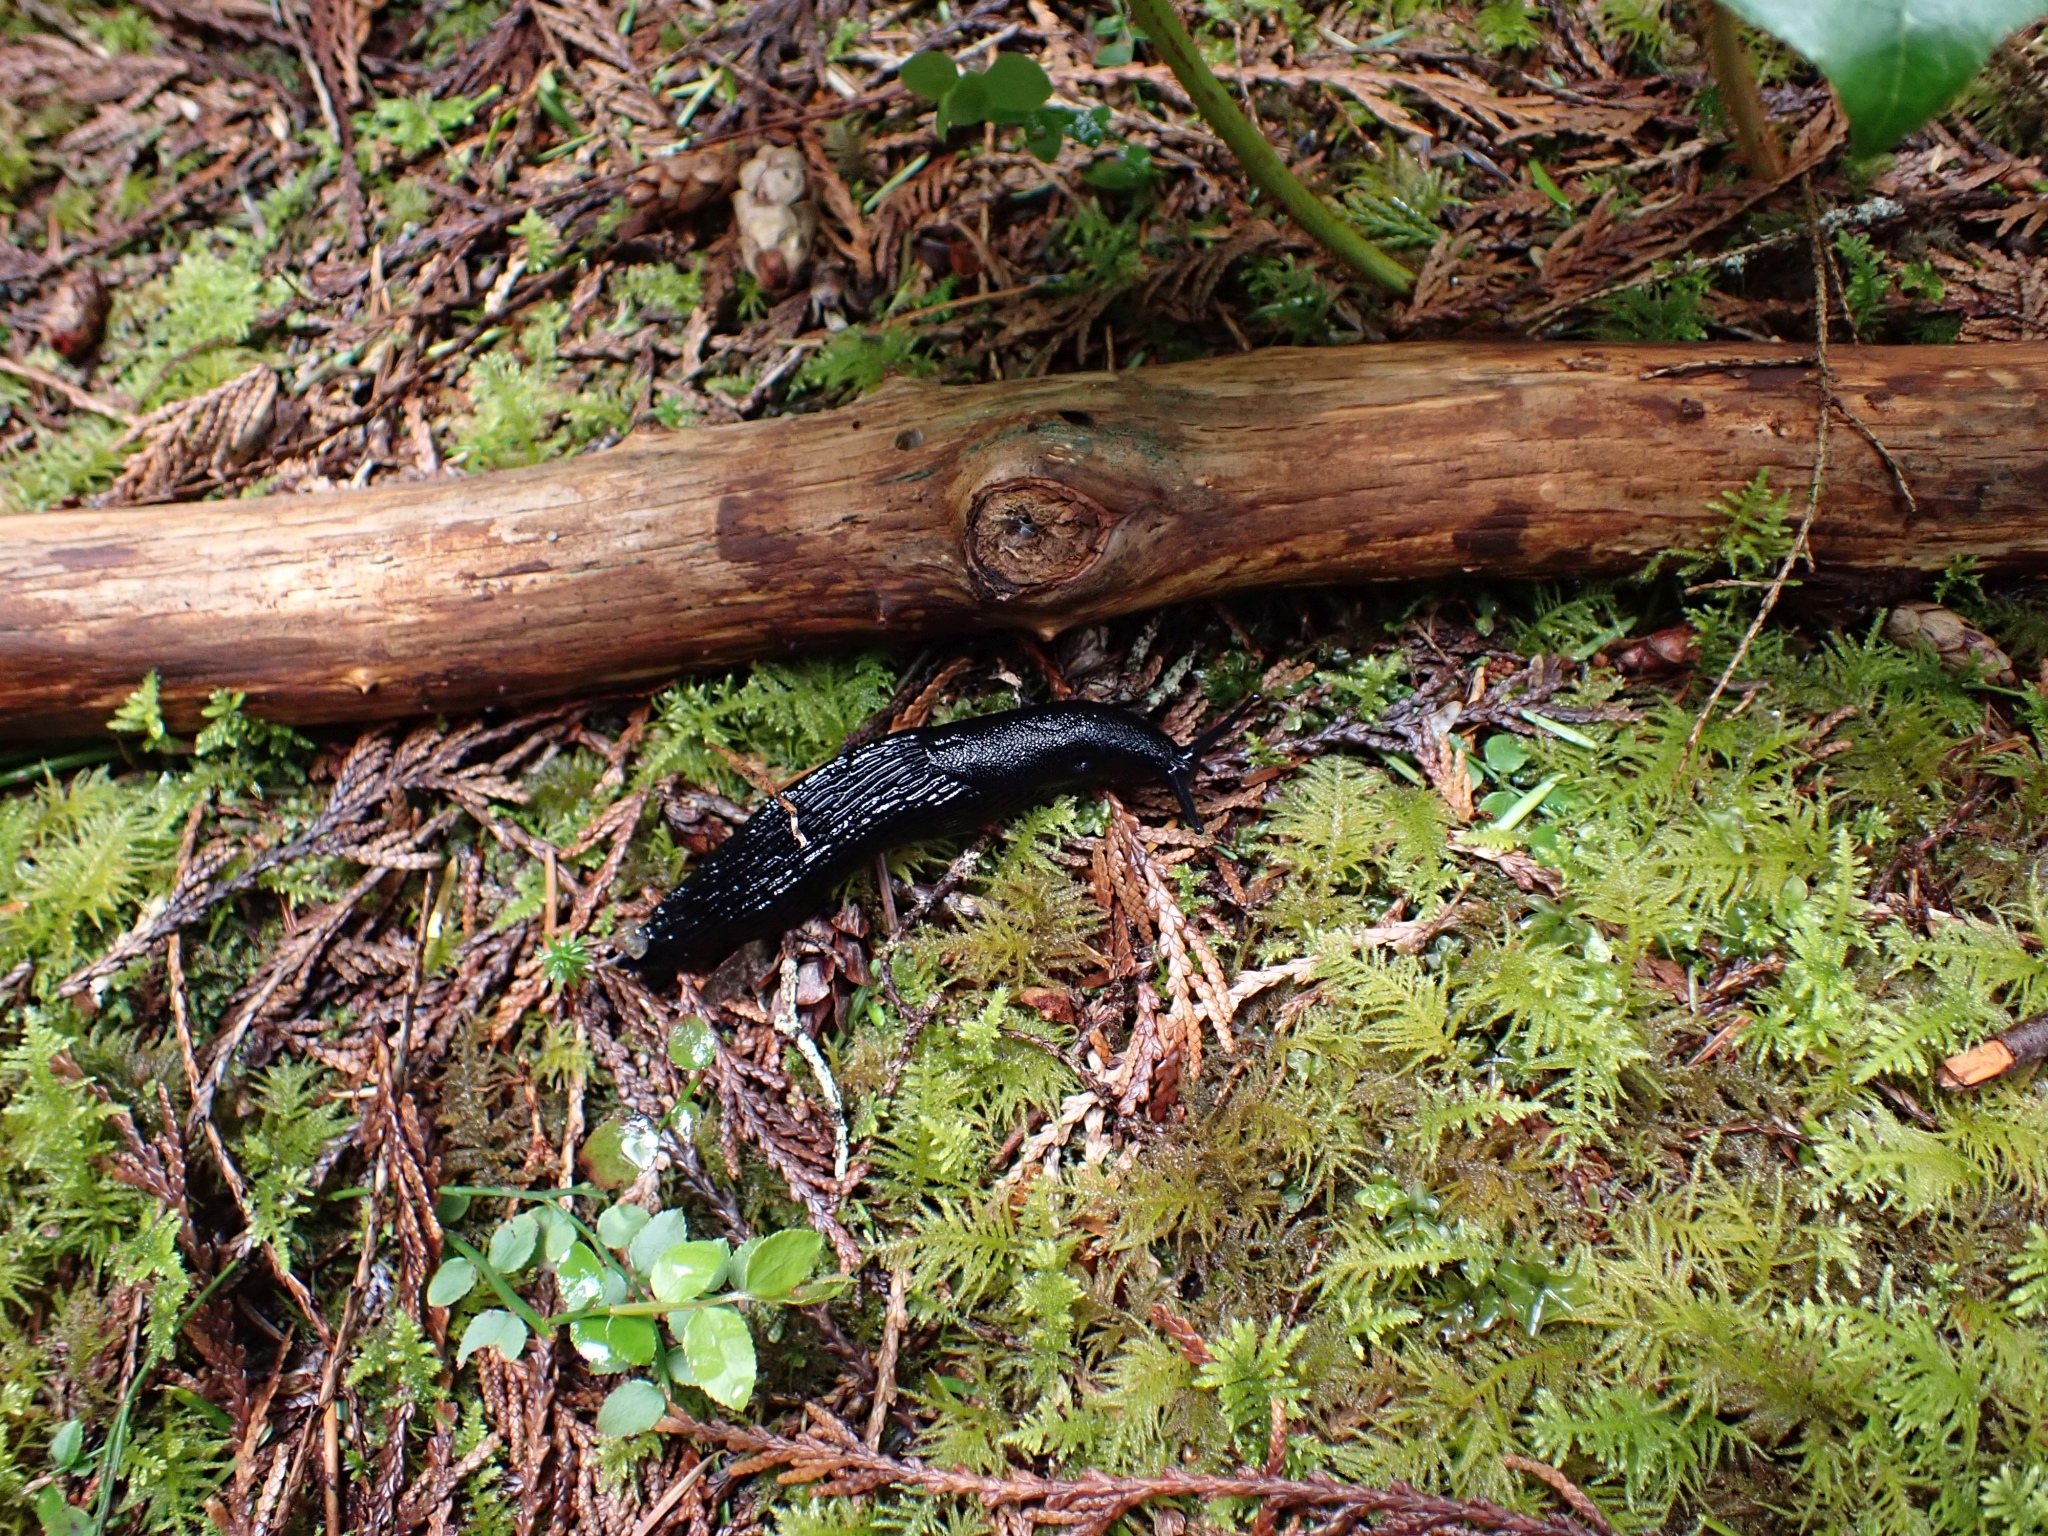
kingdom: Animalia
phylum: Mollusca
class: Gastropoda
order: Stylommatophora
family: Arionidae
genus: Arion
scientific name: Arion
